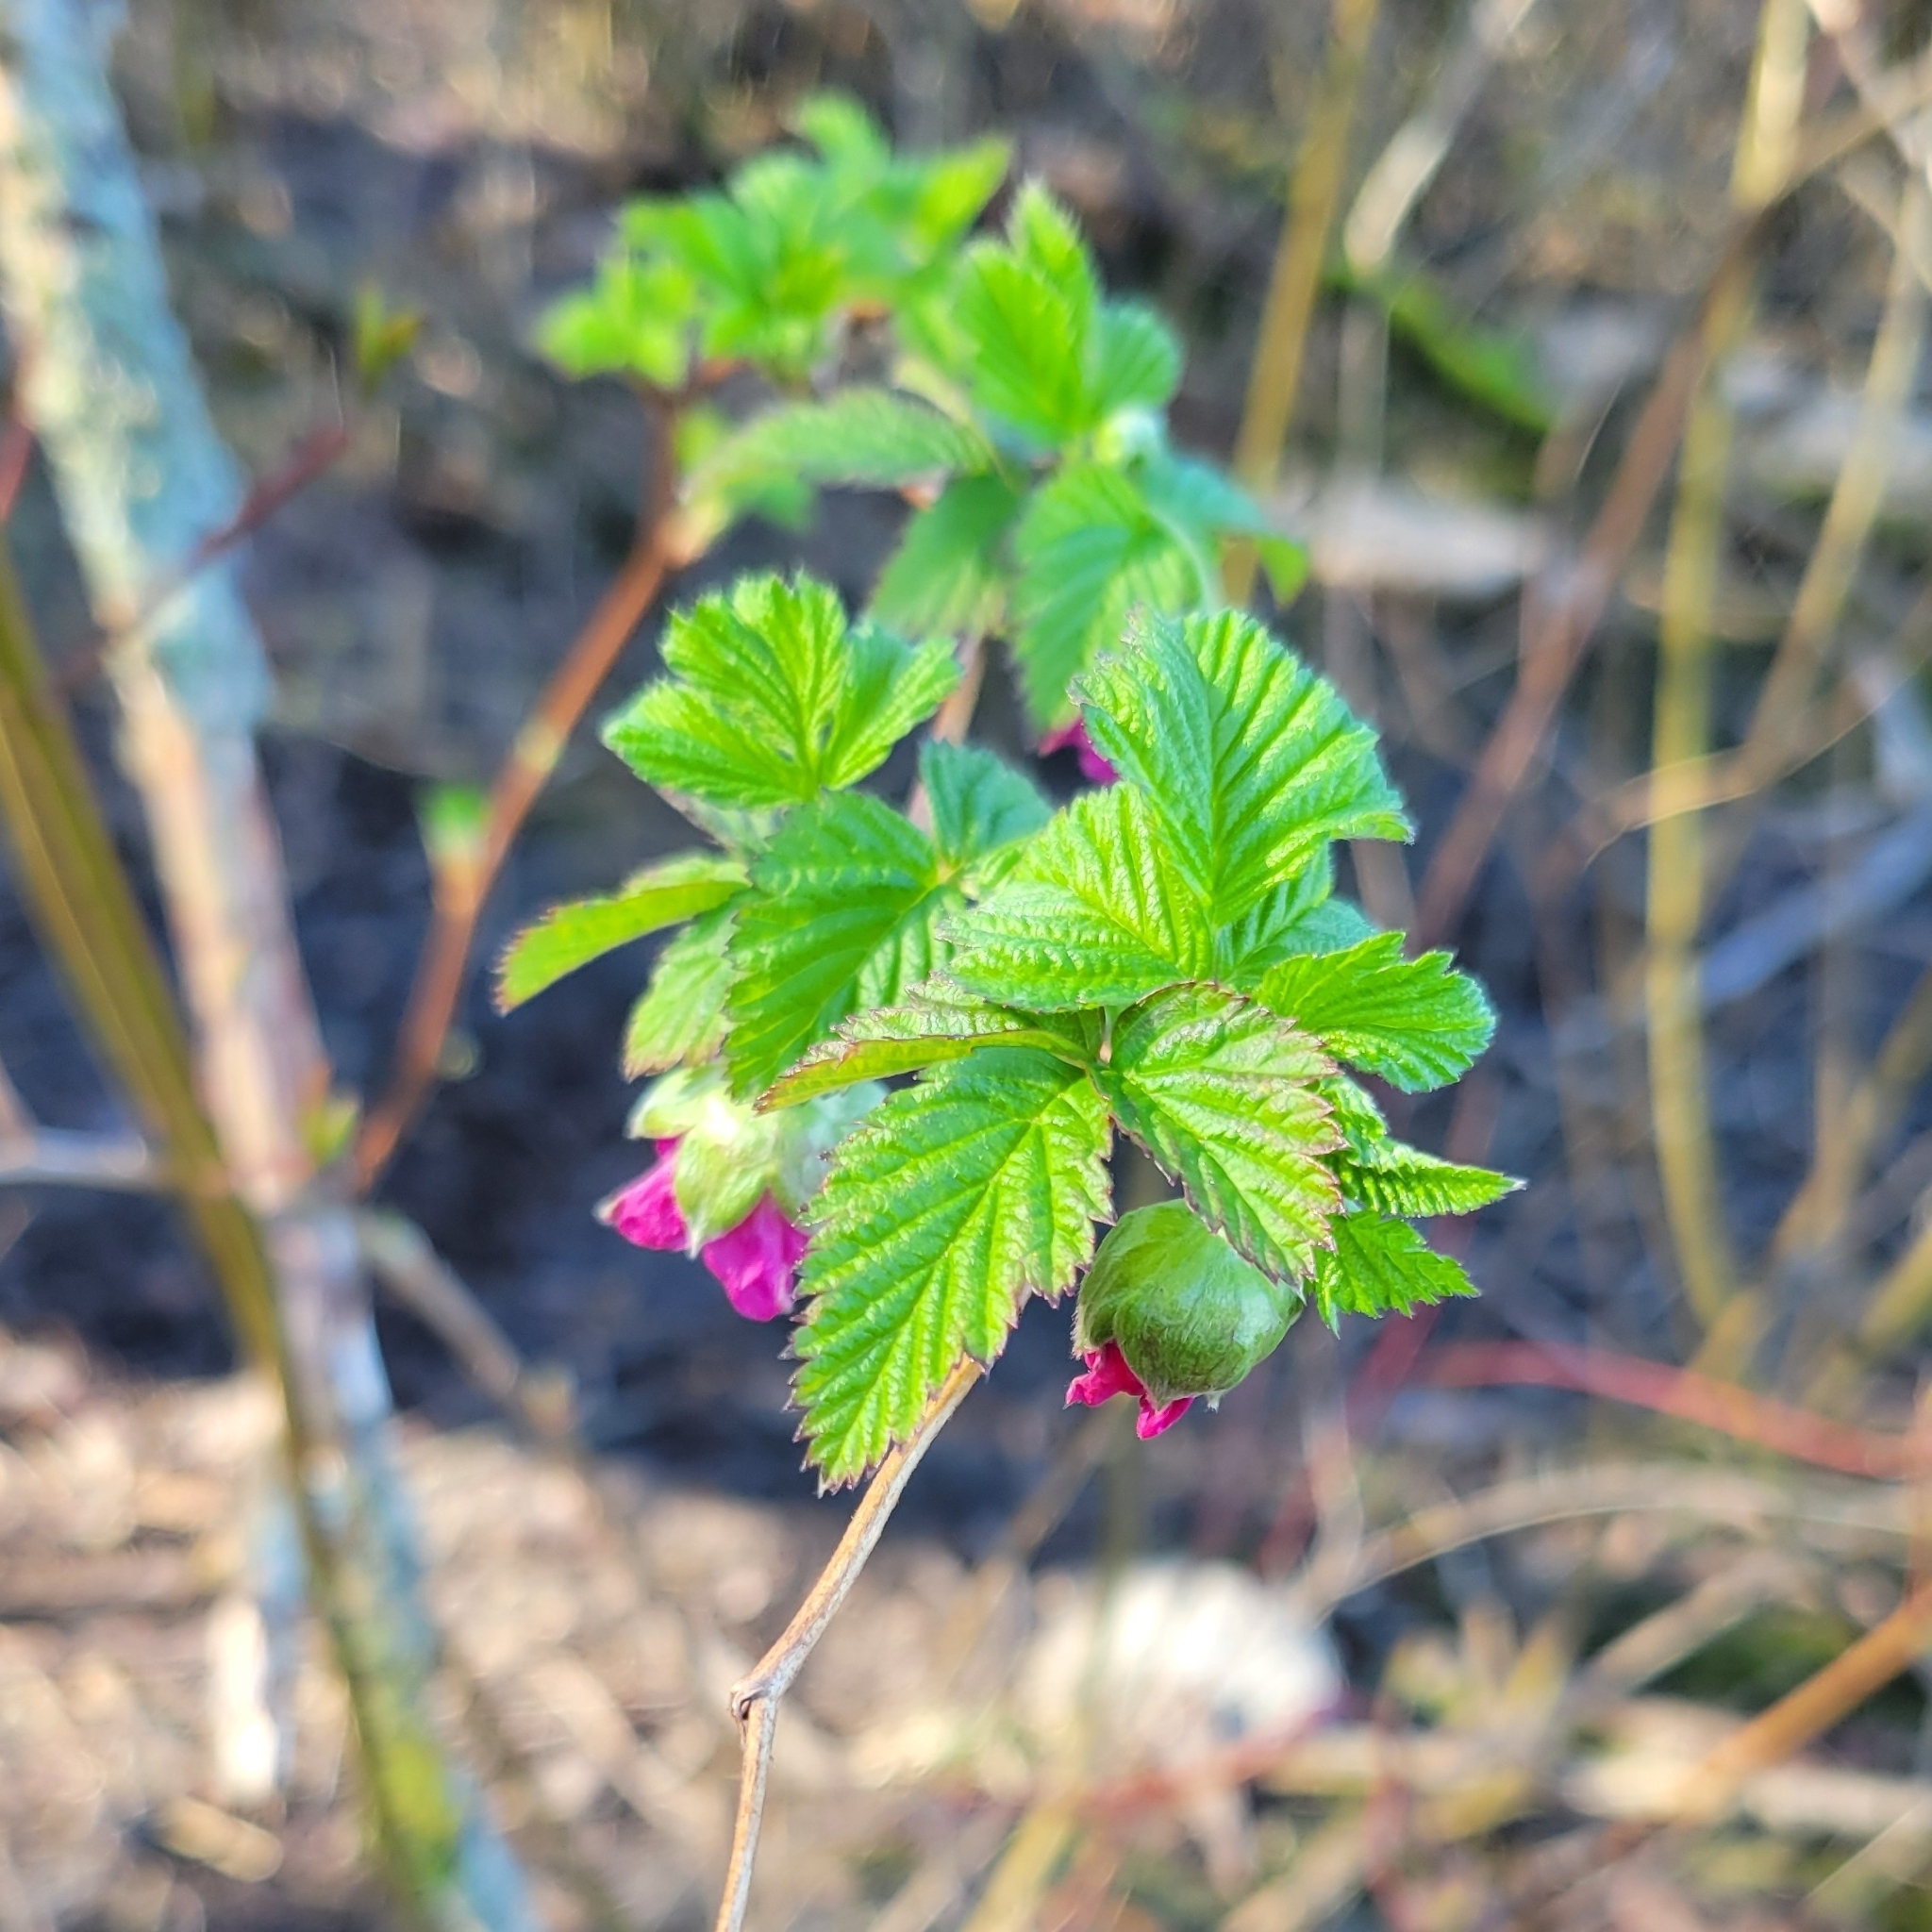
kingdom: Plantae
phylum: Tracheophyta
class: Magnoliopsida
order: Rosales
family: Rosaceae
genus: Rubus
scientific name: Rubus spectabilis
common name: Salmonberry
